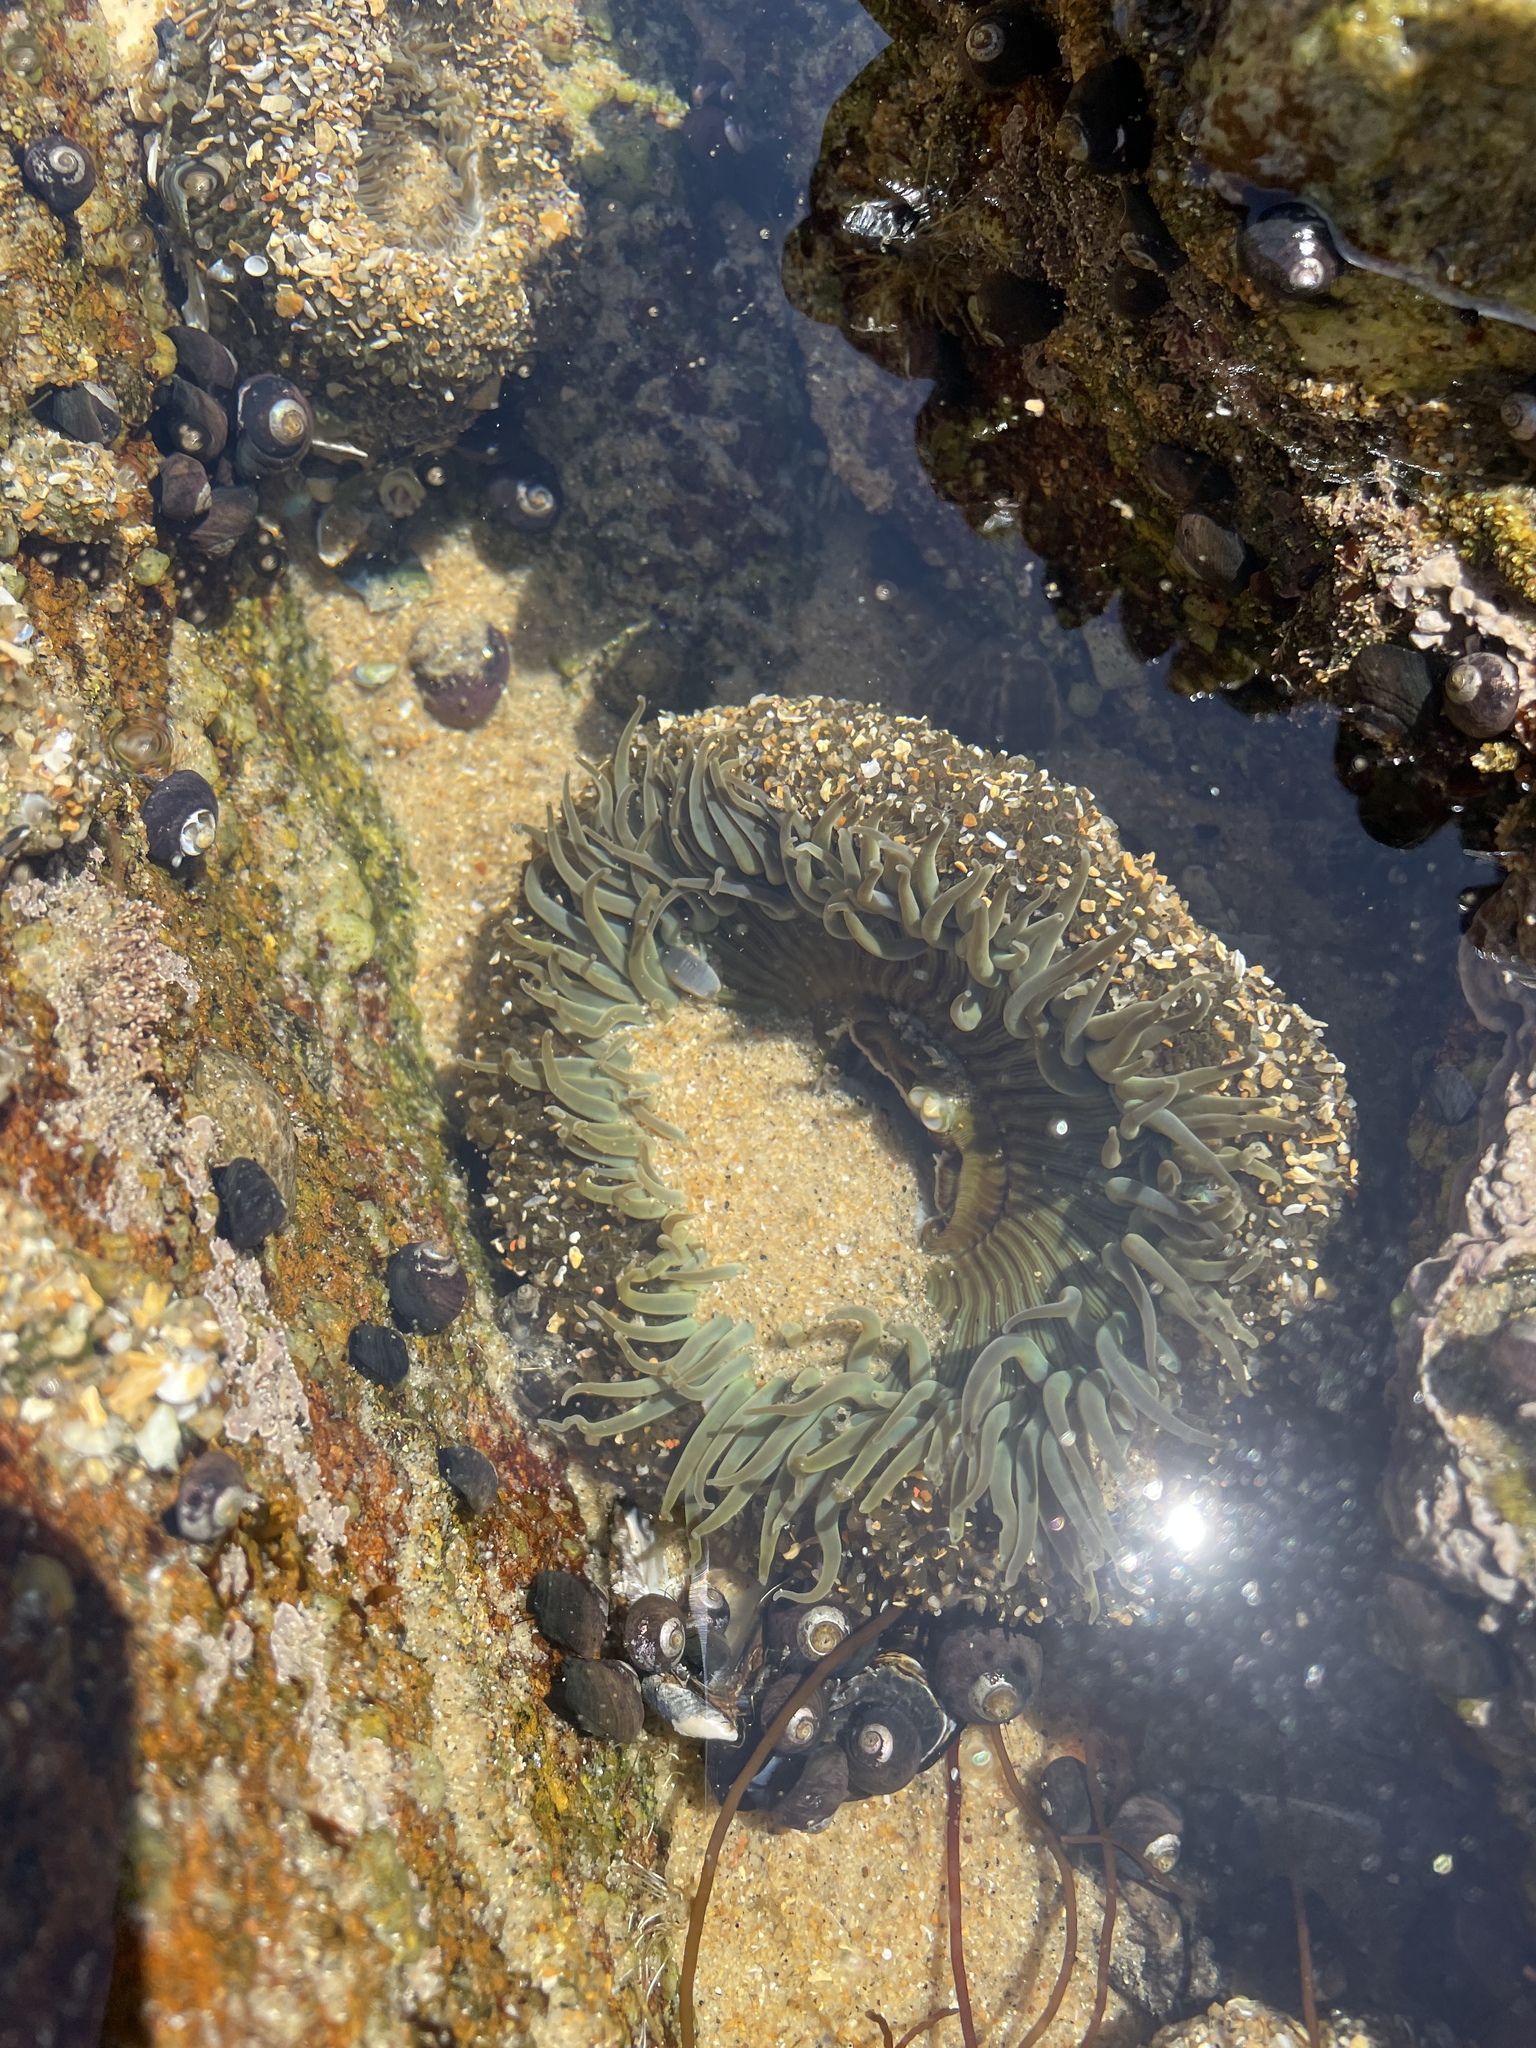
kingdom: Animalia
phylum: Cnidaria
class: Anthozoa
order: Actiniaria
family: Actiniidae
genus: Anthopleura
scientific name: Anthopleura sola
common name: Sun anemone
